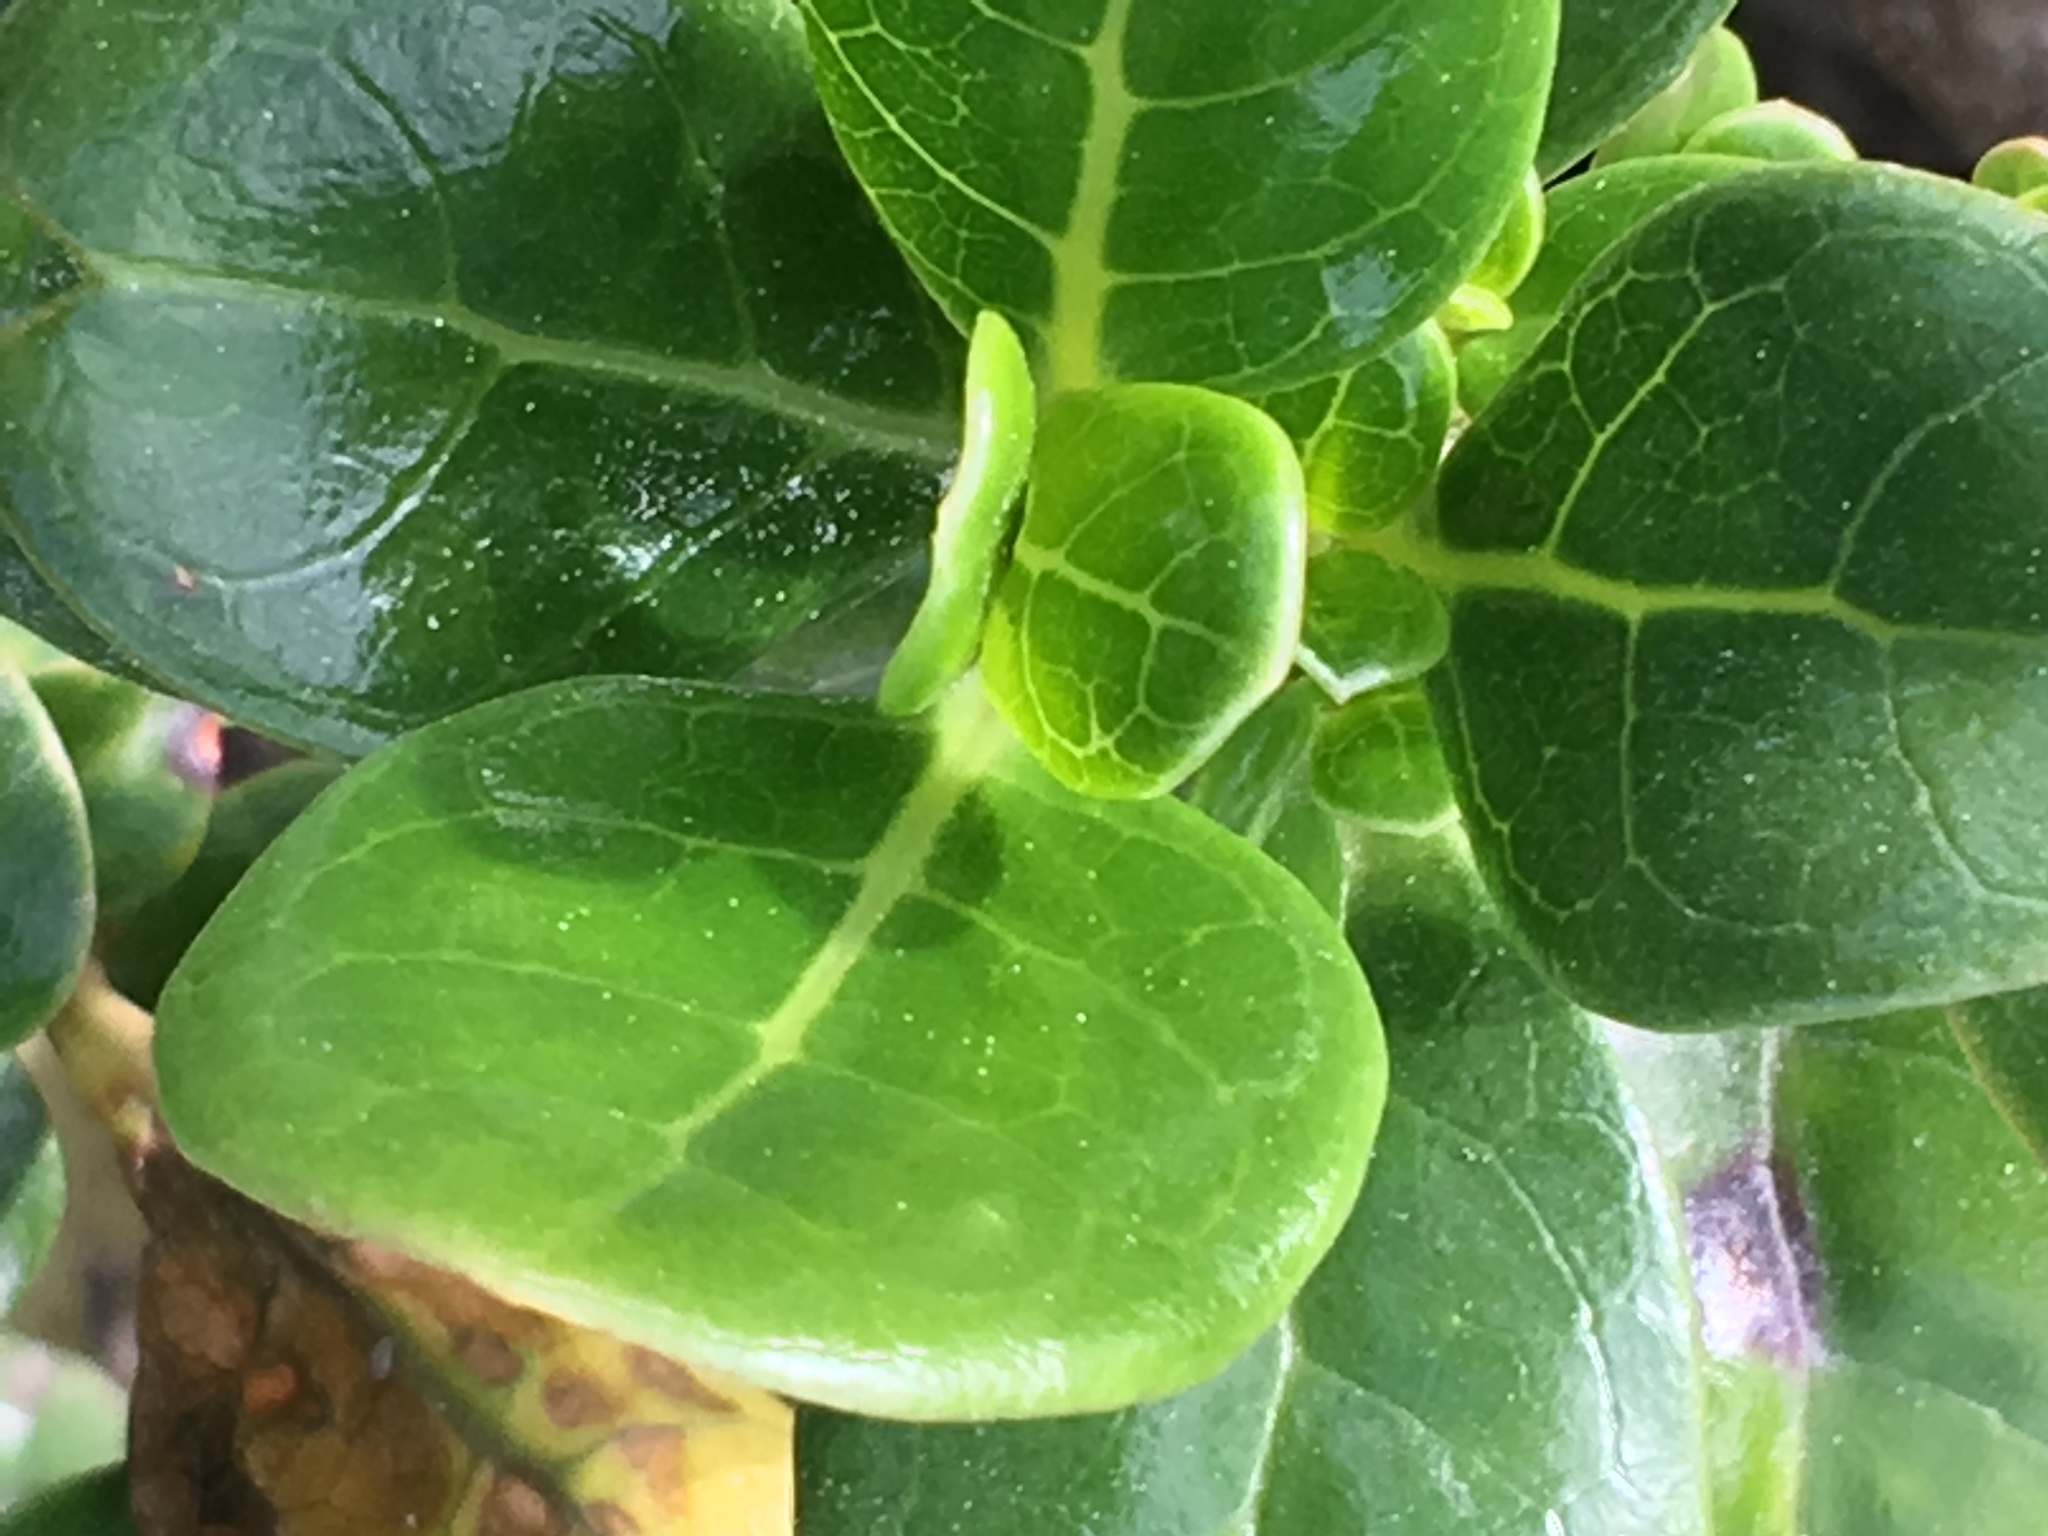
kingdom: Plantae
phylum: Tracheophyta
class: Magnoliopsida
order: Gentianales
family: Rubiaceae
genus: Coprosma
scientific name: Coprosma repens
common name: Tree bedstraw
